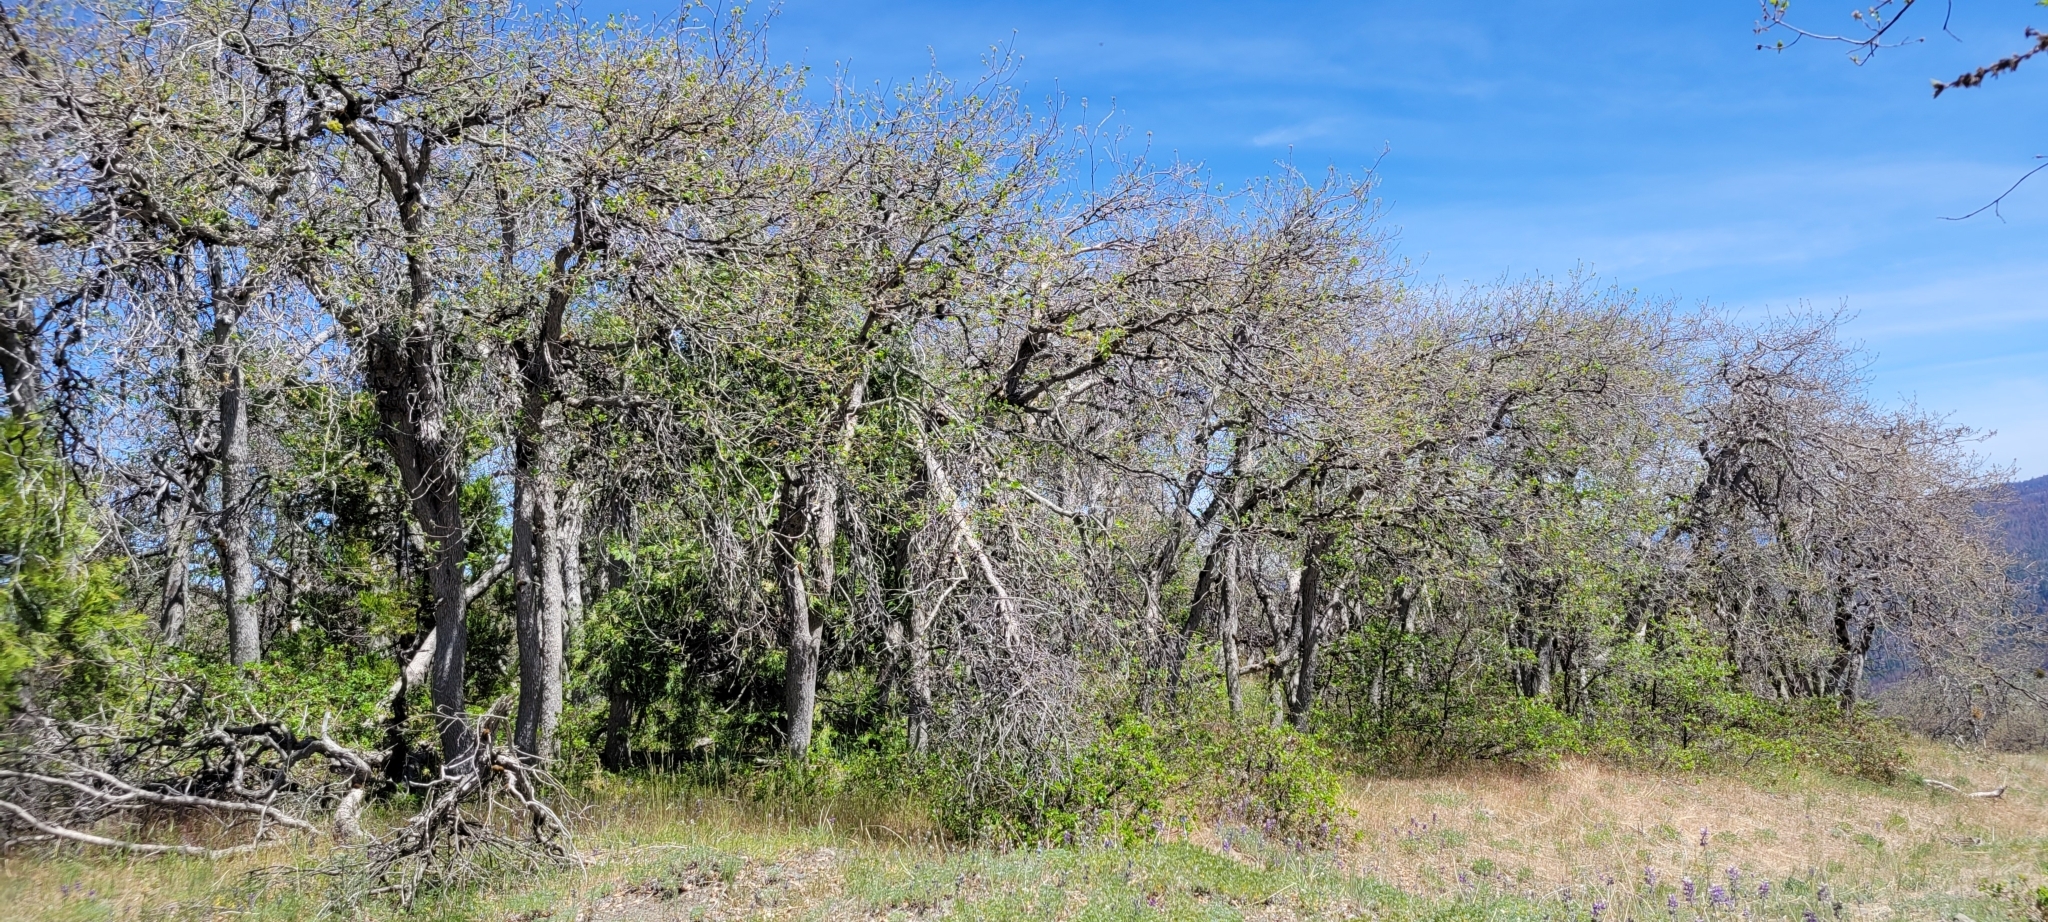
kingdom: Plantae
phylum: Tracheophyta
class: Magnoliopsida
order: Fagales
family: Fagaceae
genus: Quercus
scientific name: Quercus garryana
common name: Garry oak
